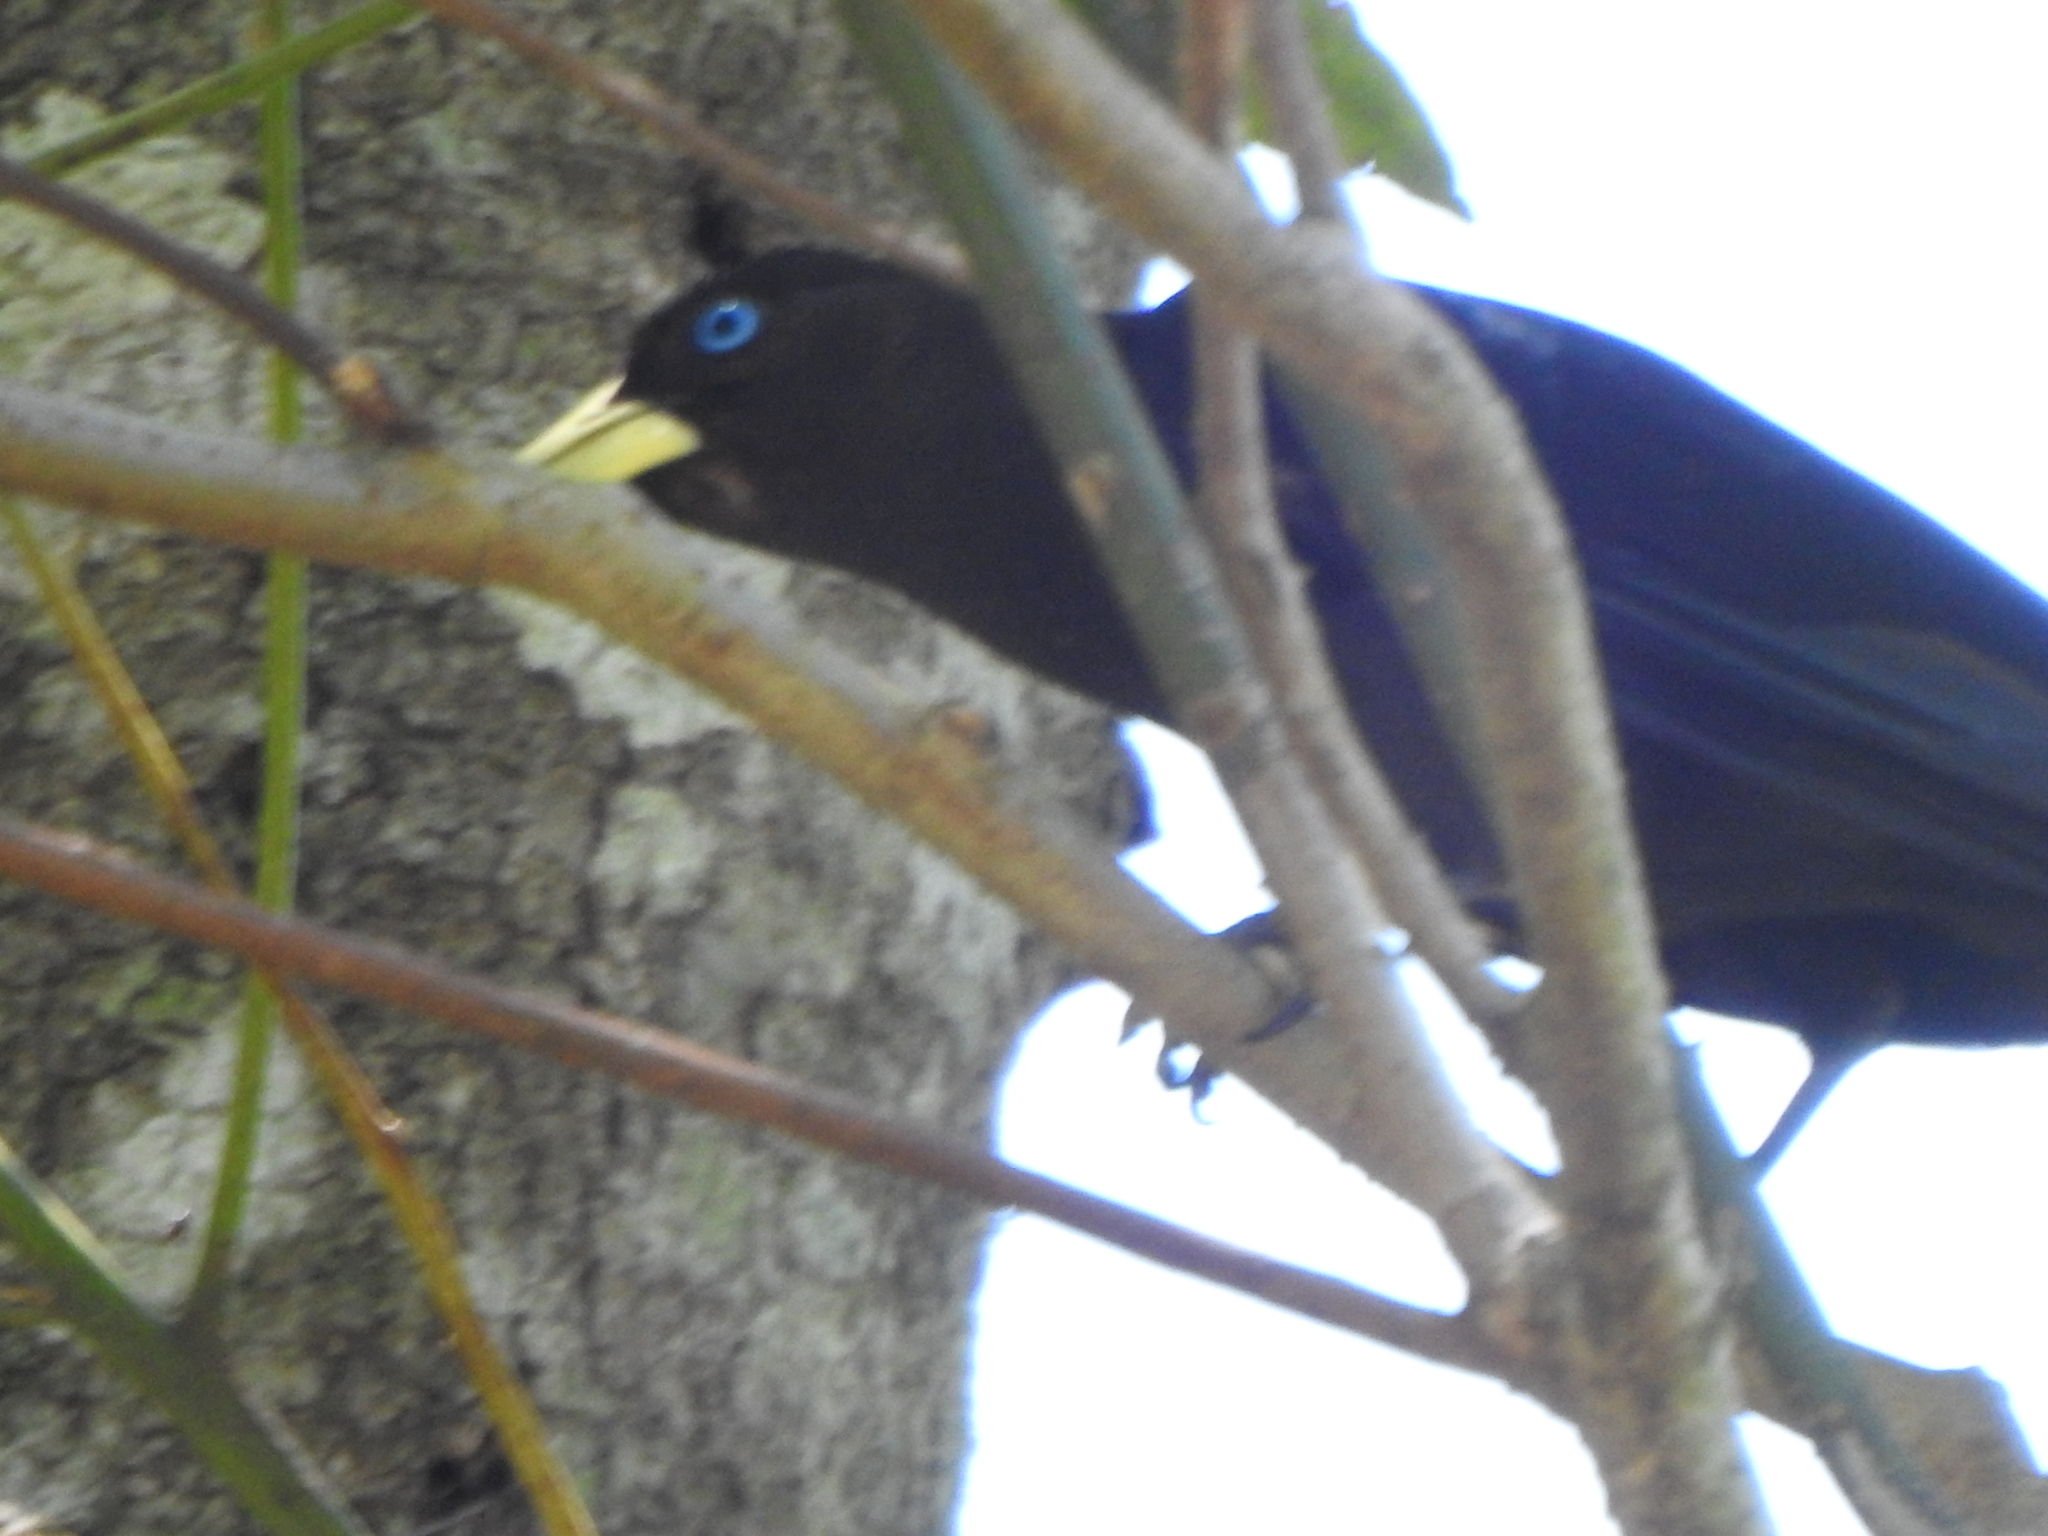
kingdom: Animalia
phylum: Chordata
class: Aves
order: Passeriformes
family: Icteridae
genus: Cacicus
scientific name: Cacicus haemorrhous
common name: Red-rumped cacique
